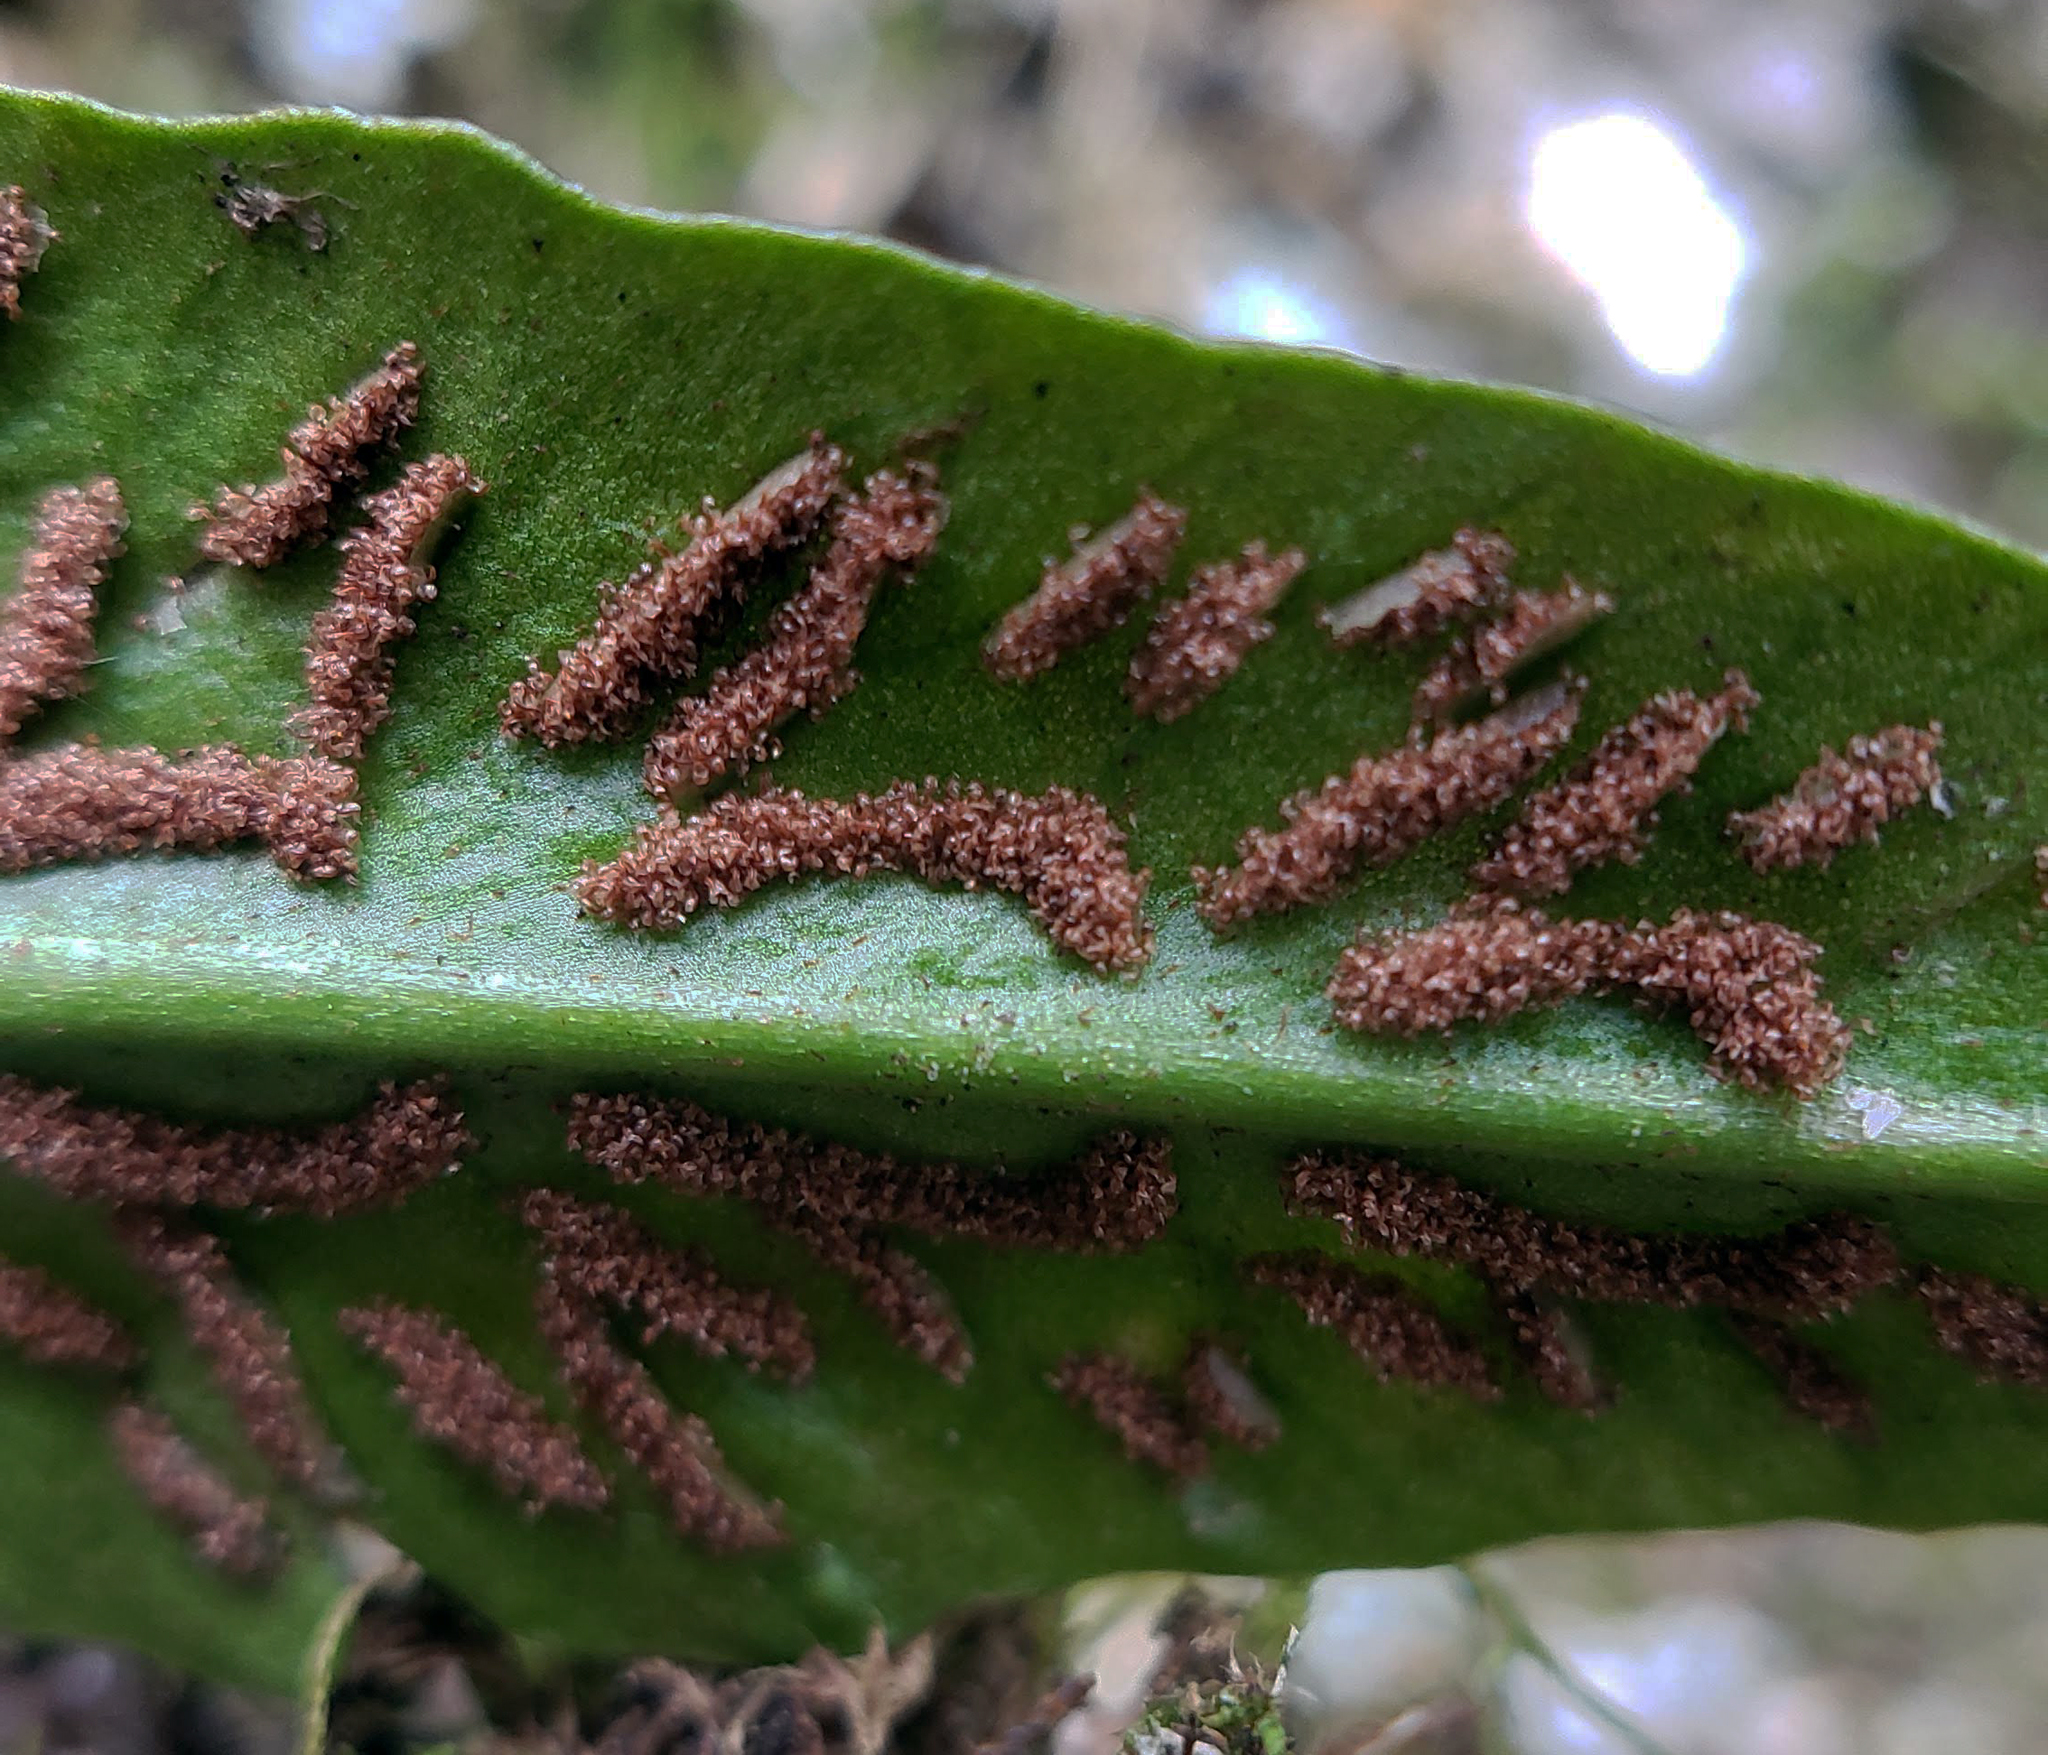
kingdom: Plantae
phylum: Tracheophyta
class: Polypodiopsida
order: Polypodiales
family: Aspleniaceae
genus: Asplenium
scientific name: Asplenium rhizophyllum
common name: Walking fern
